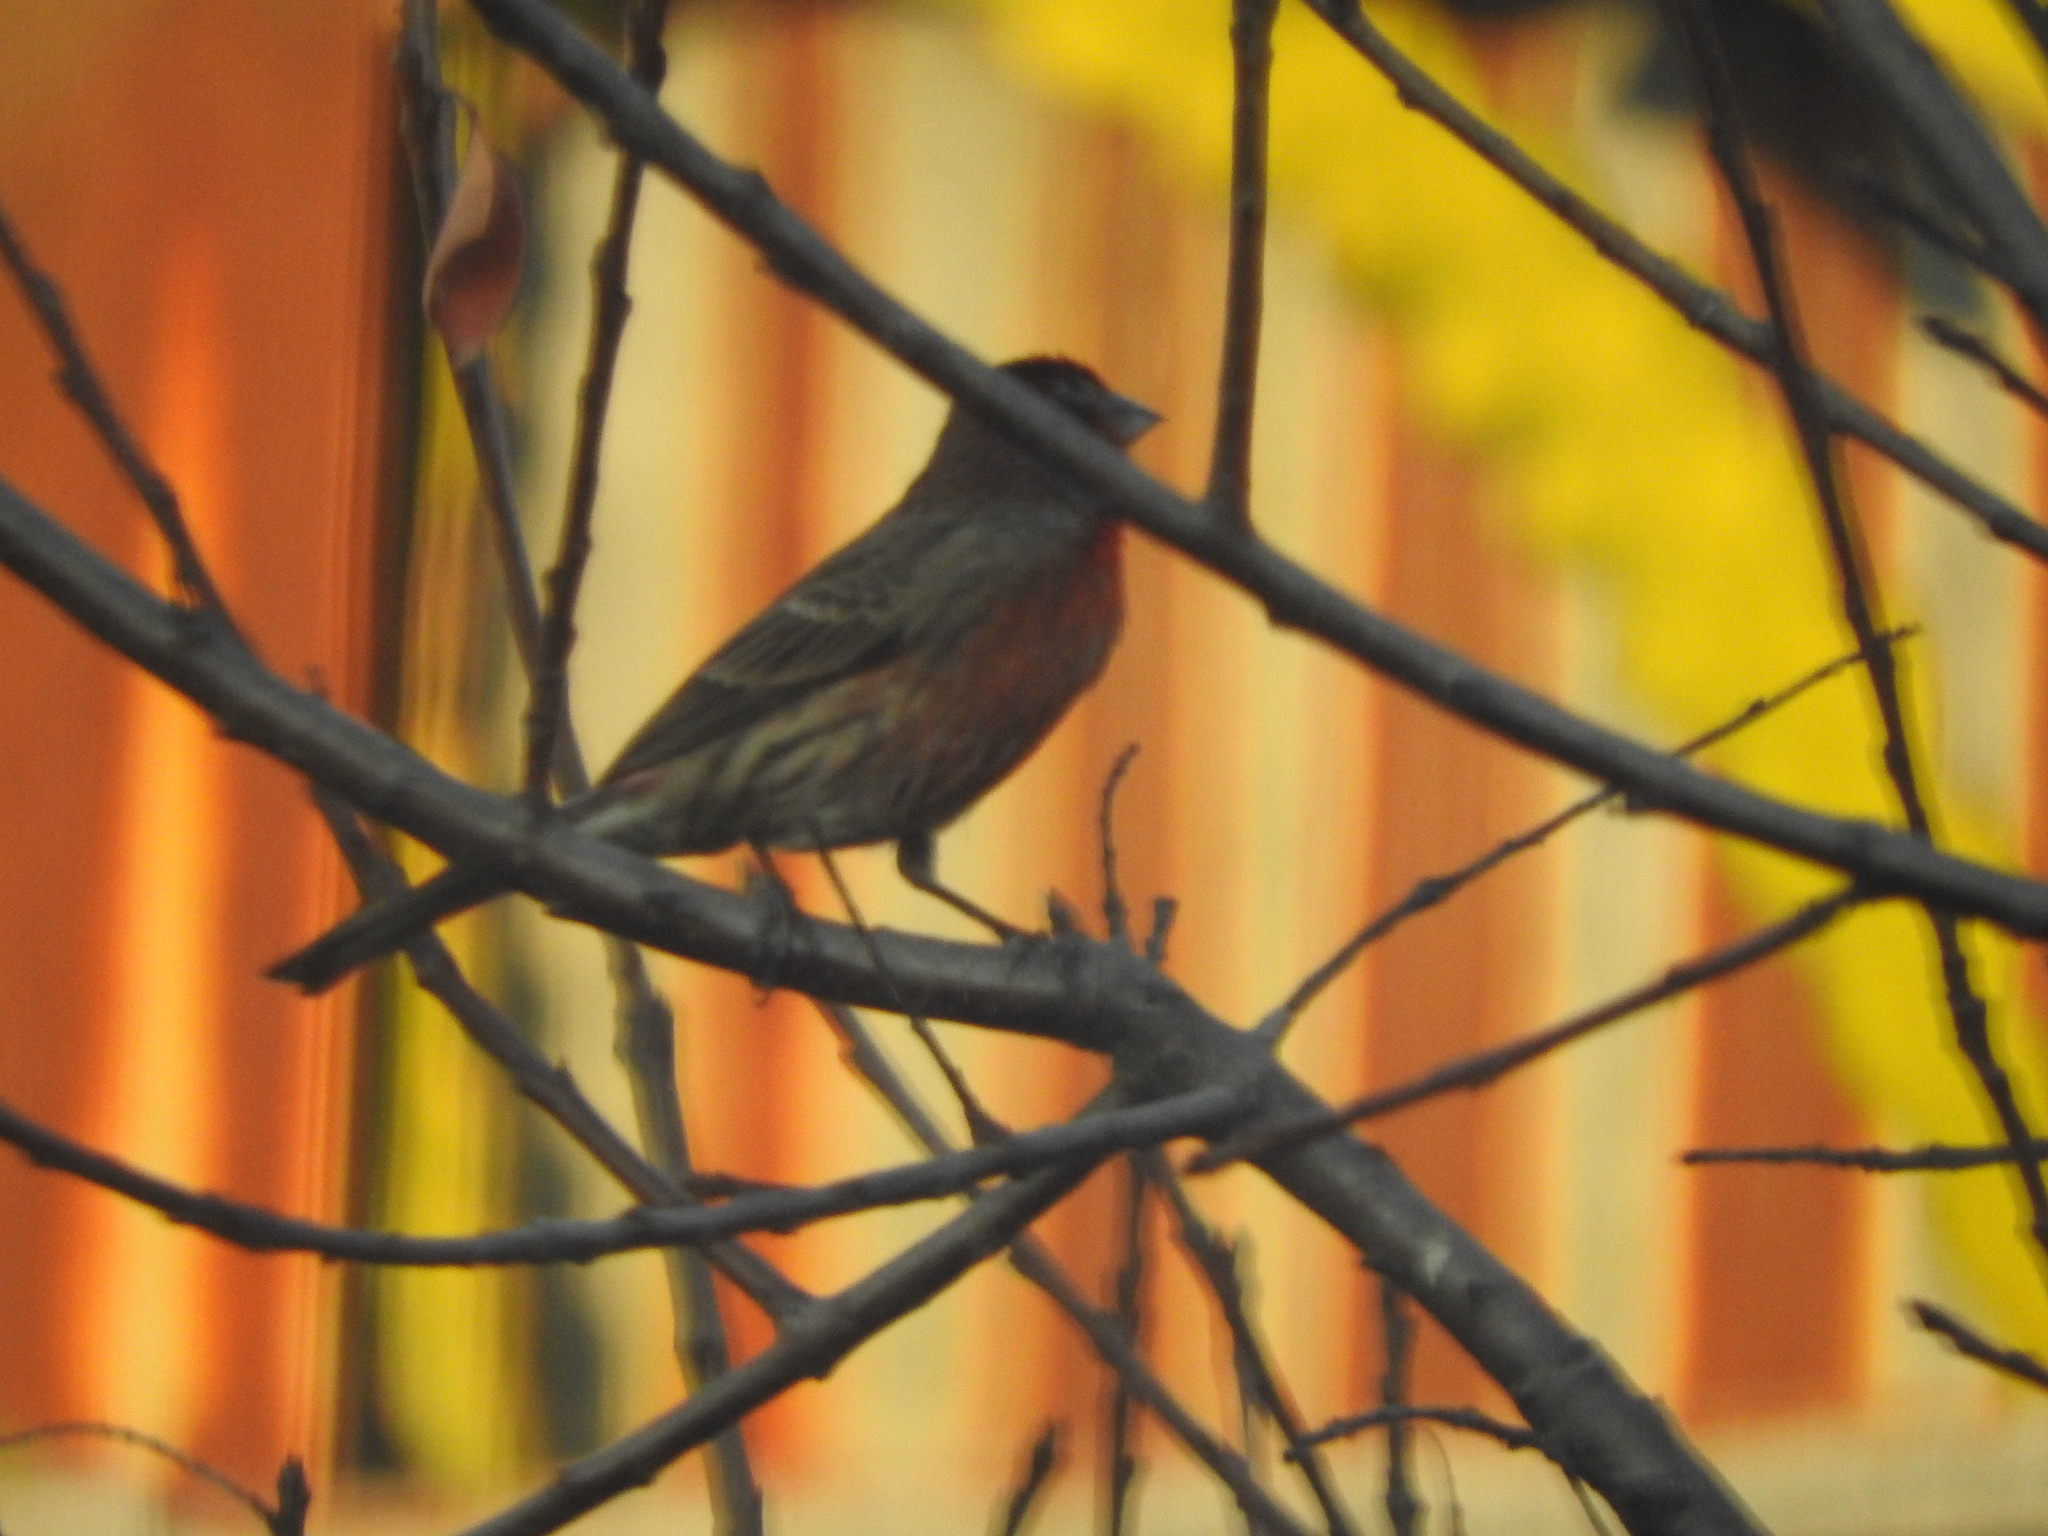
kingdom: Animalia
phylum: Chordata
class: Aves
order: Passeriformes
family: Fringillidae
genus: Haemorhous
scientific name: Haemorhous mexicanus
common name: House finch
